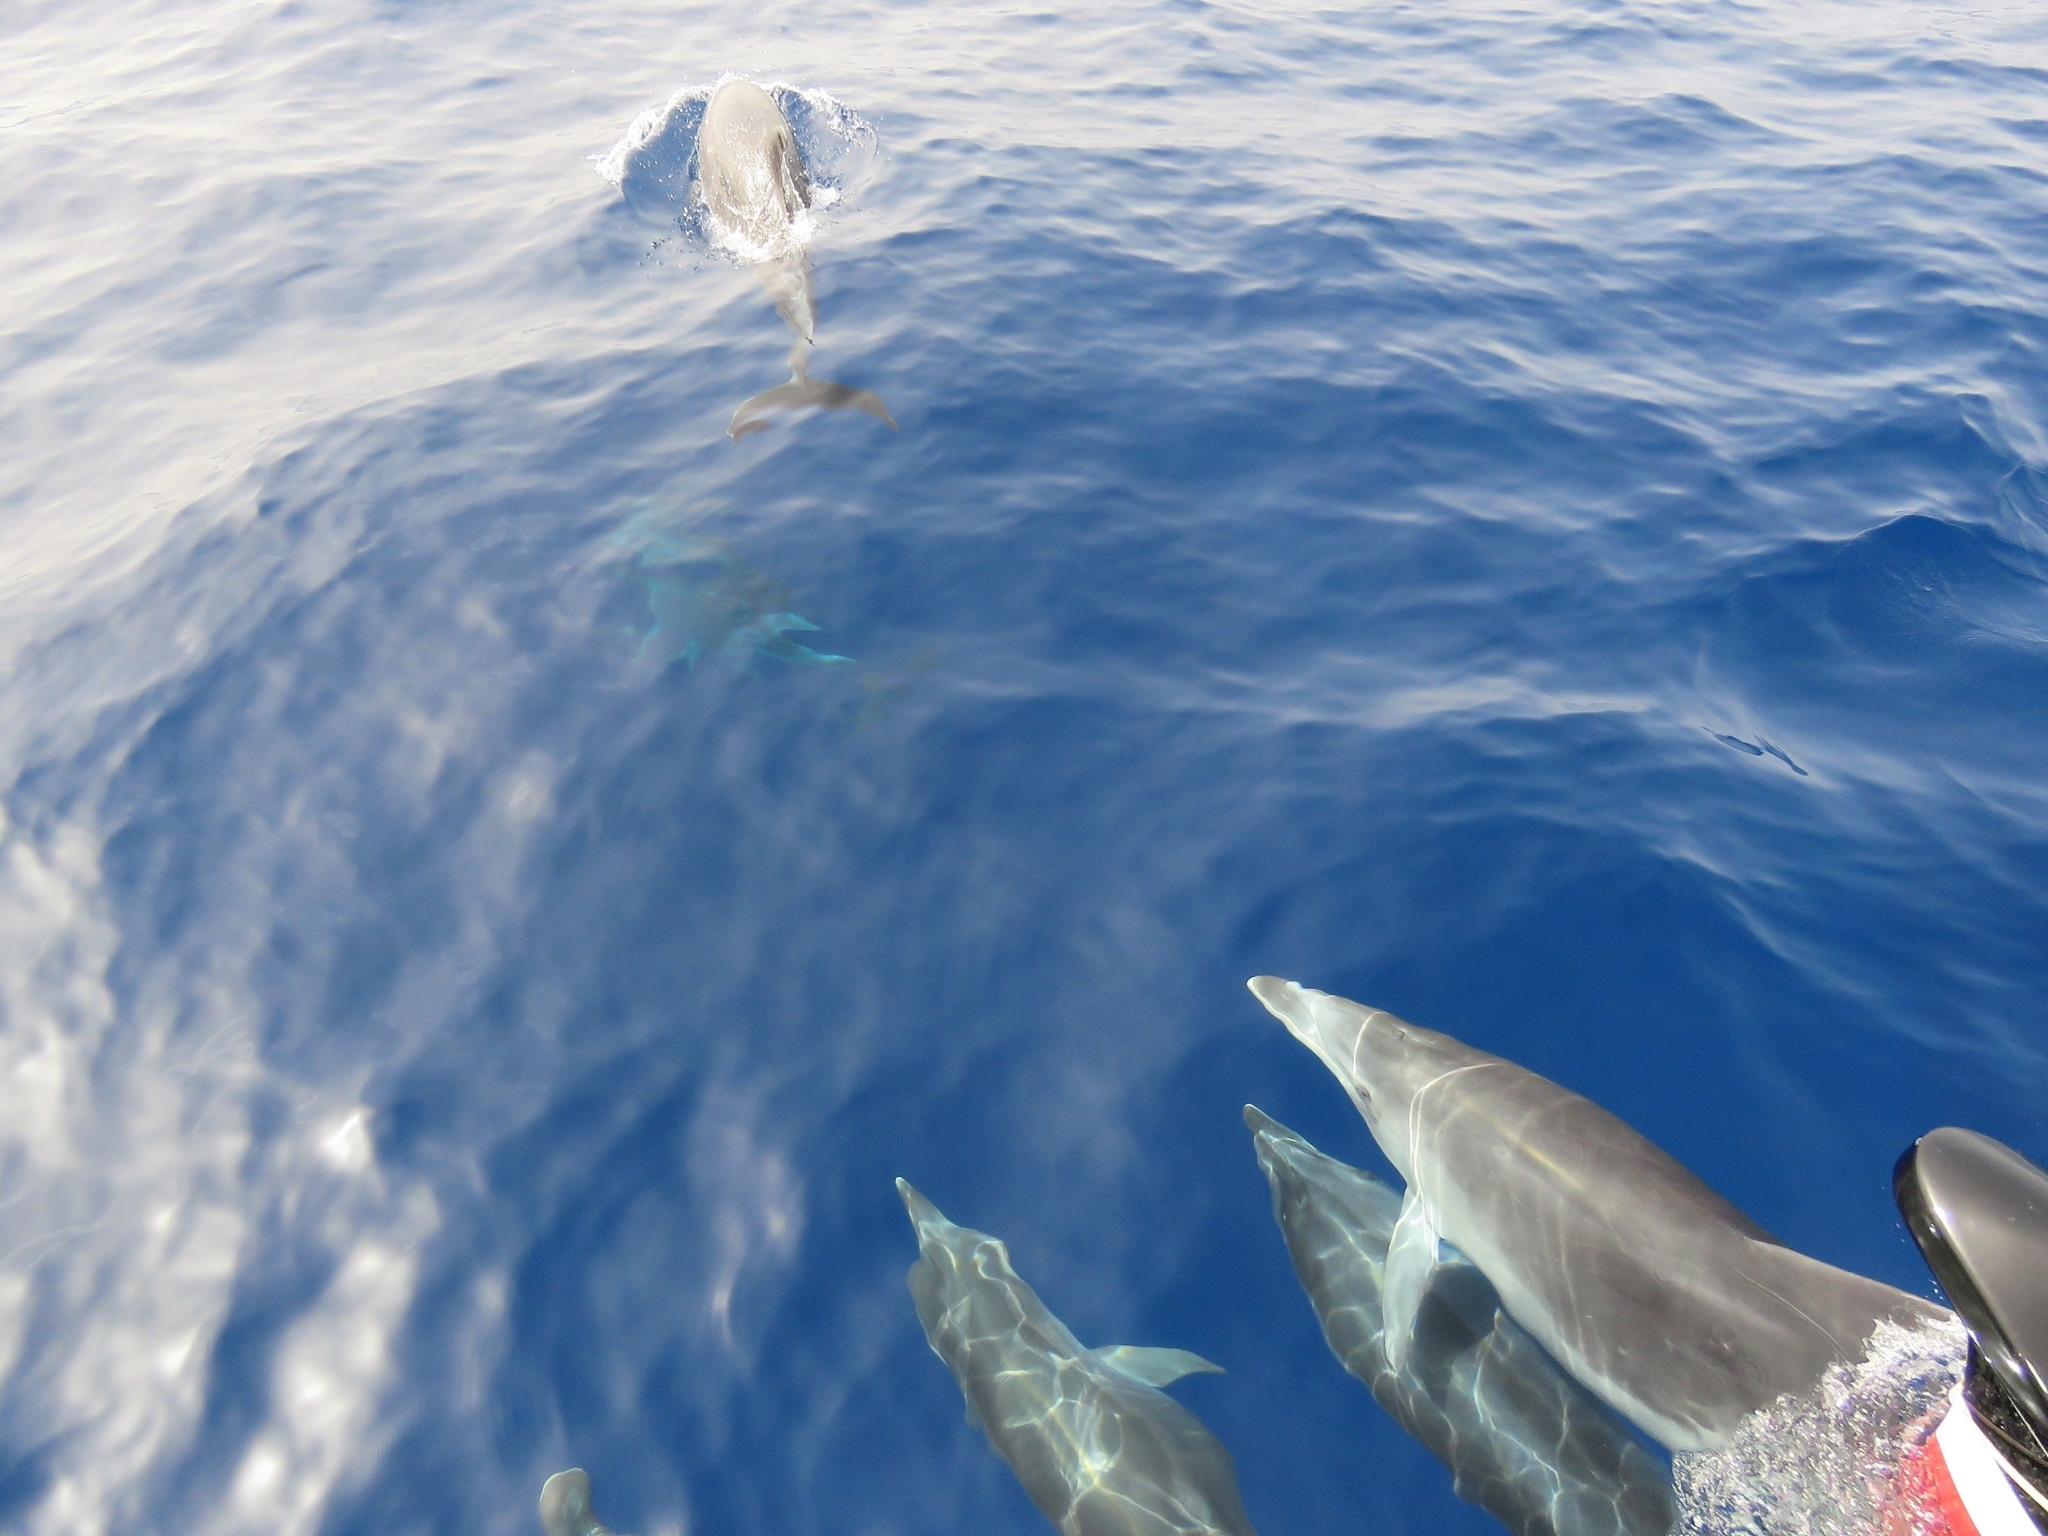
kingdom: Animalia
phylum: Chordata
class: Mammalia
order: Cetacea
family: Delphinidae
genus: Tursiops
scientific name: Tursiops truncatus
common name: Bottlenose dolphin
